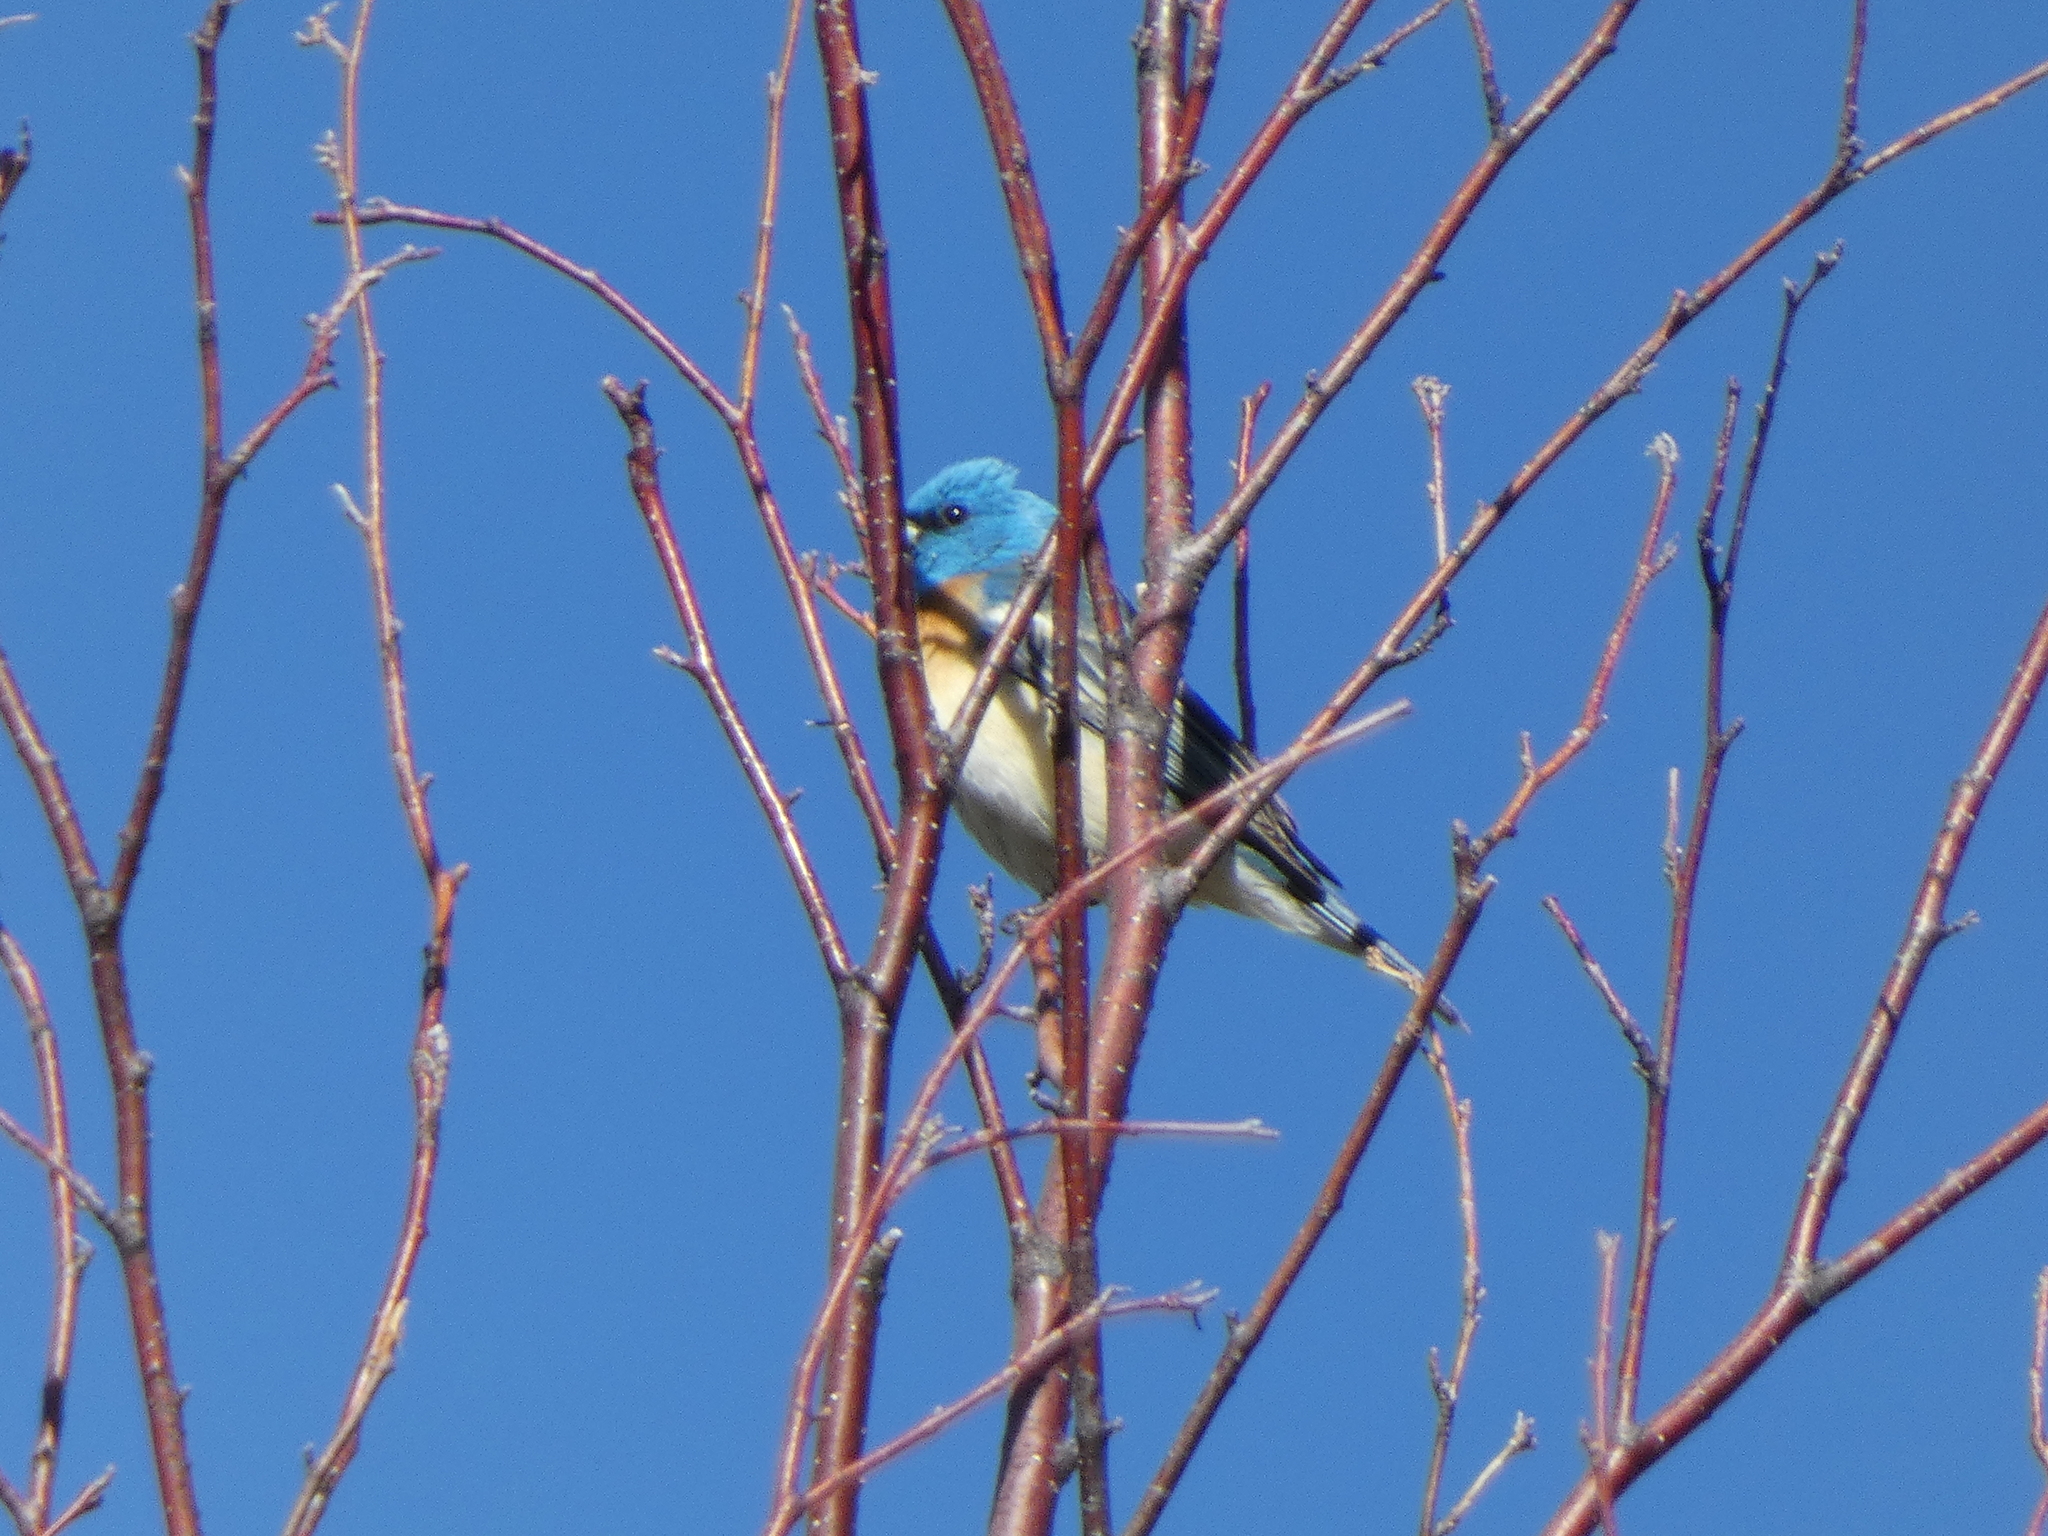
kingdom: Animalia
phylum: Chordata
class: Aves
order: Passeriformes
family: Cardinalidae
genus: Passerina
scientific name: Passerina amoena
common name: Lazuli bunting
